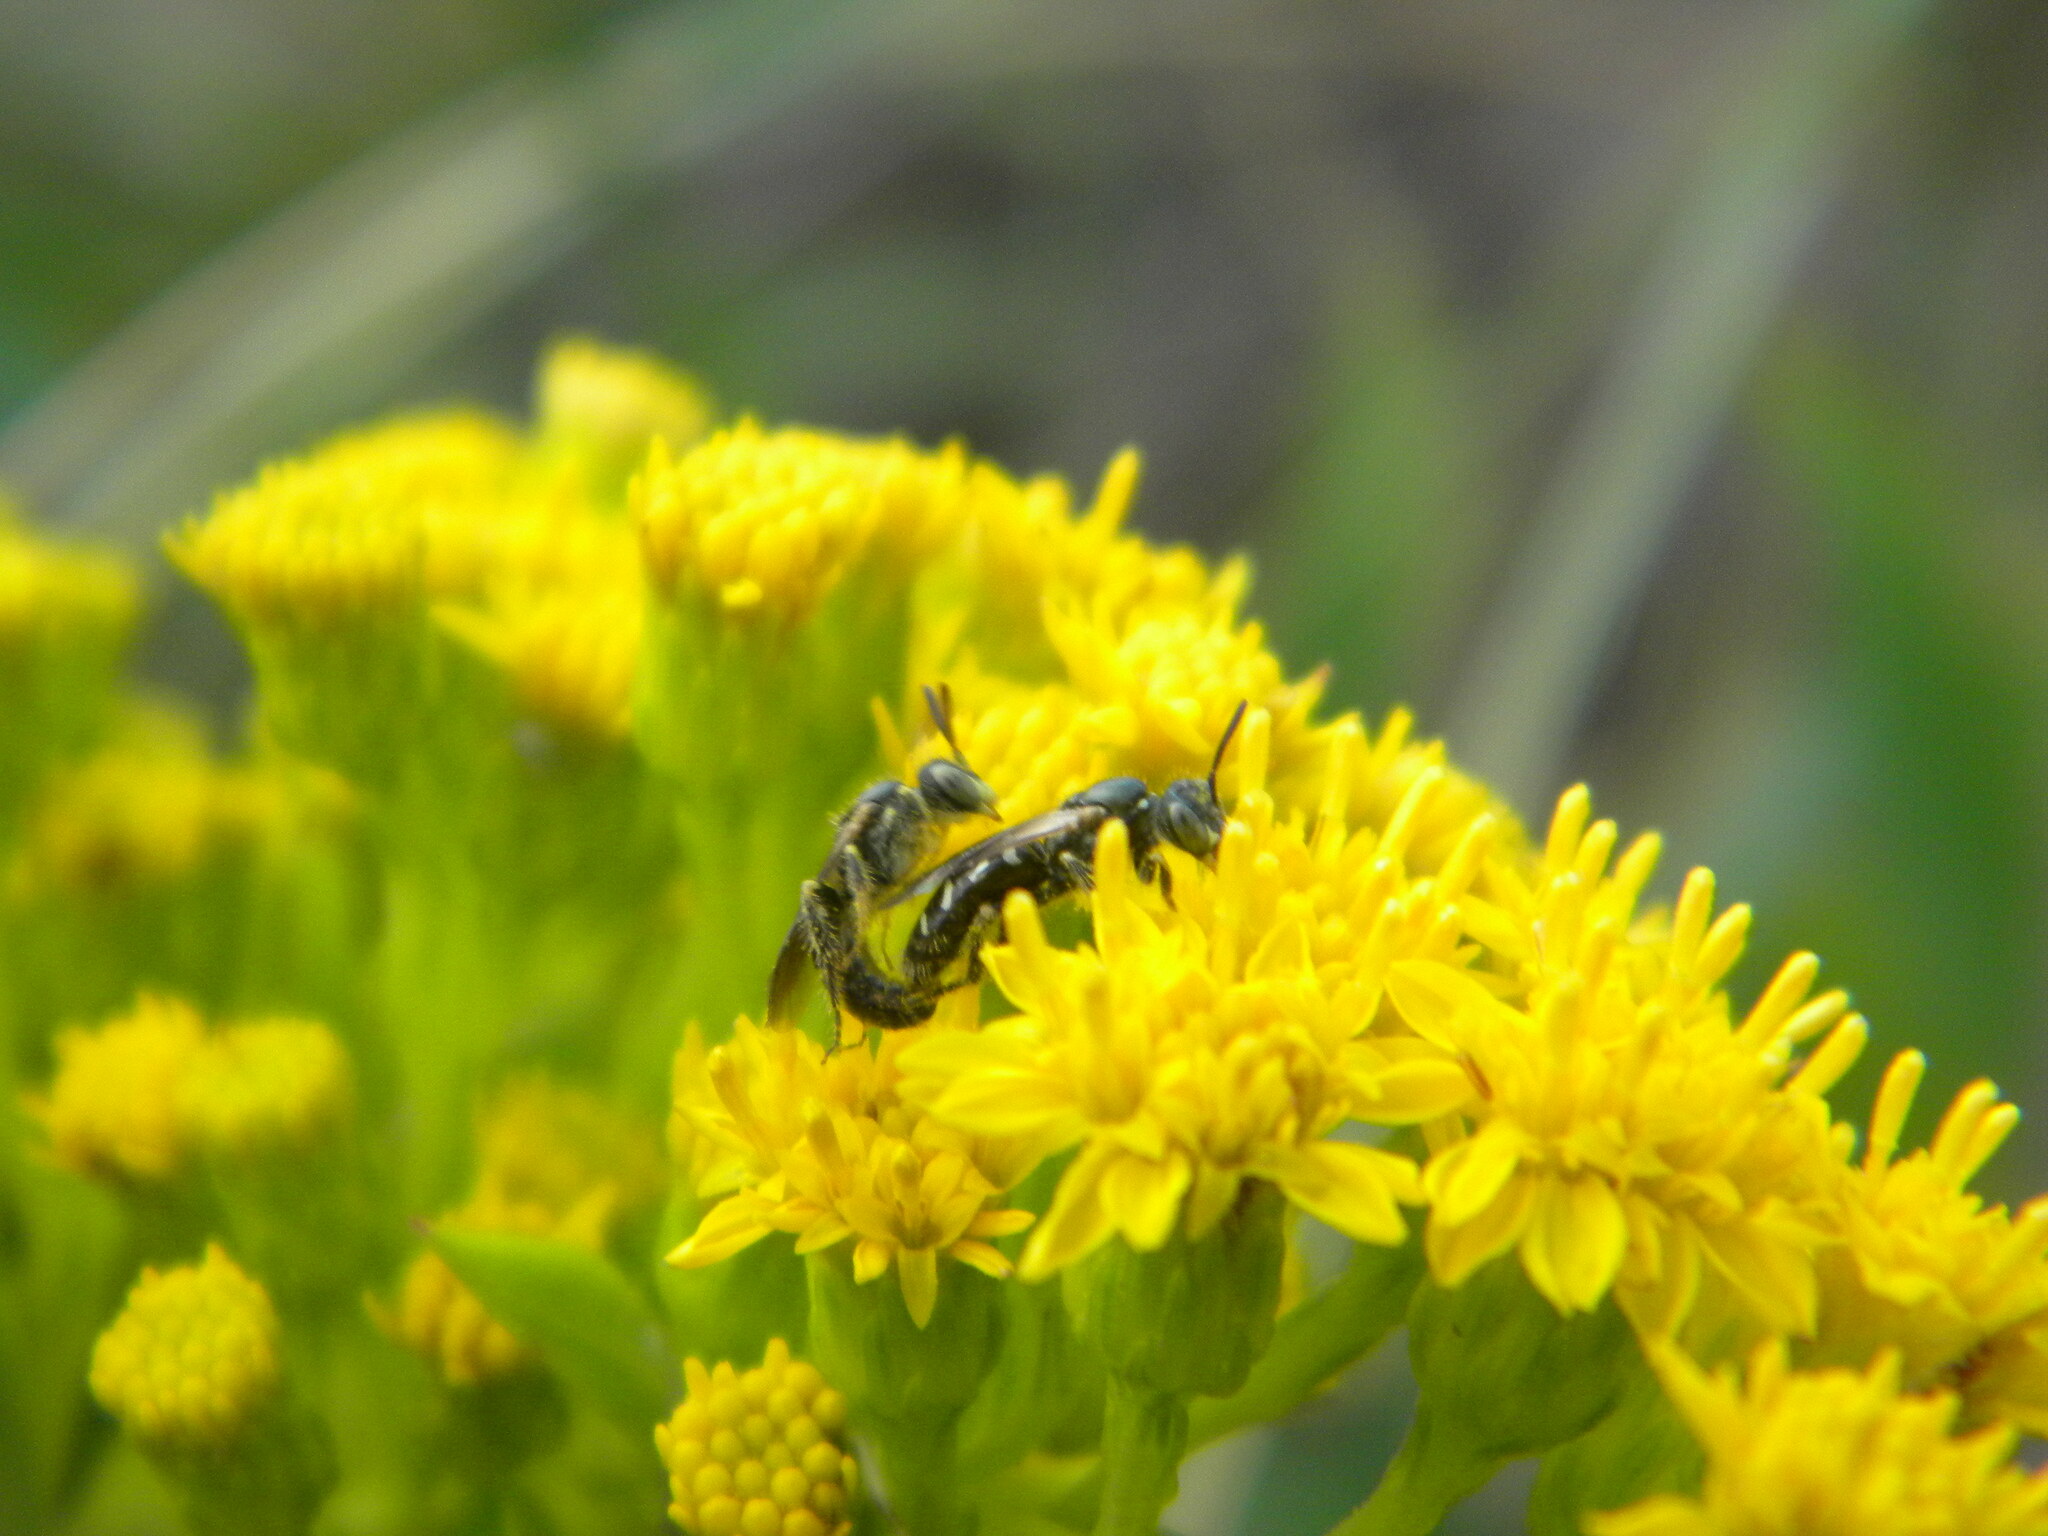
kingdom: Animalia
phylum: Arthropoda
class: Insecta
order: Hymenoptera
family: Andrenidae
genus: Perdita
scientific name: Perdita octomaculata
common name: Eight-spotted miner bee
